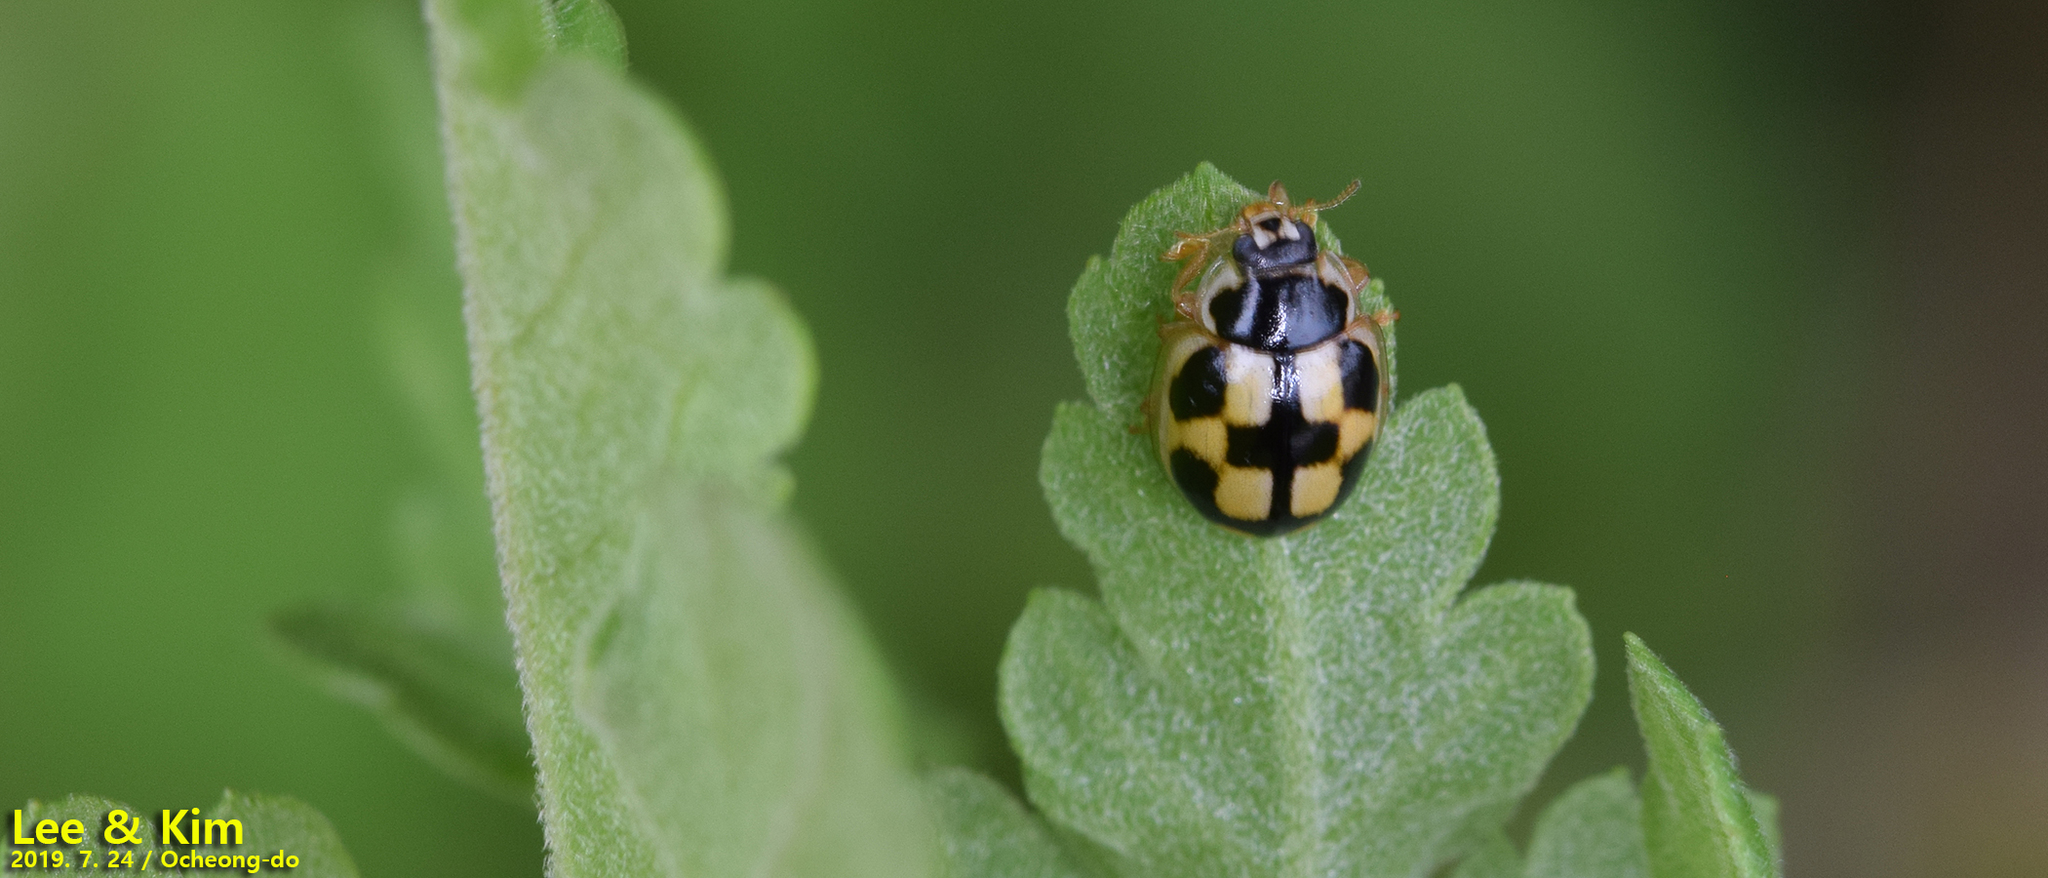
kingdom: Animalia
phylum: Arthropoda
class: Insecta
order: Coleoptera
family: Coccinellidae
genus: Propylea
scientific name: Propylea japonica
